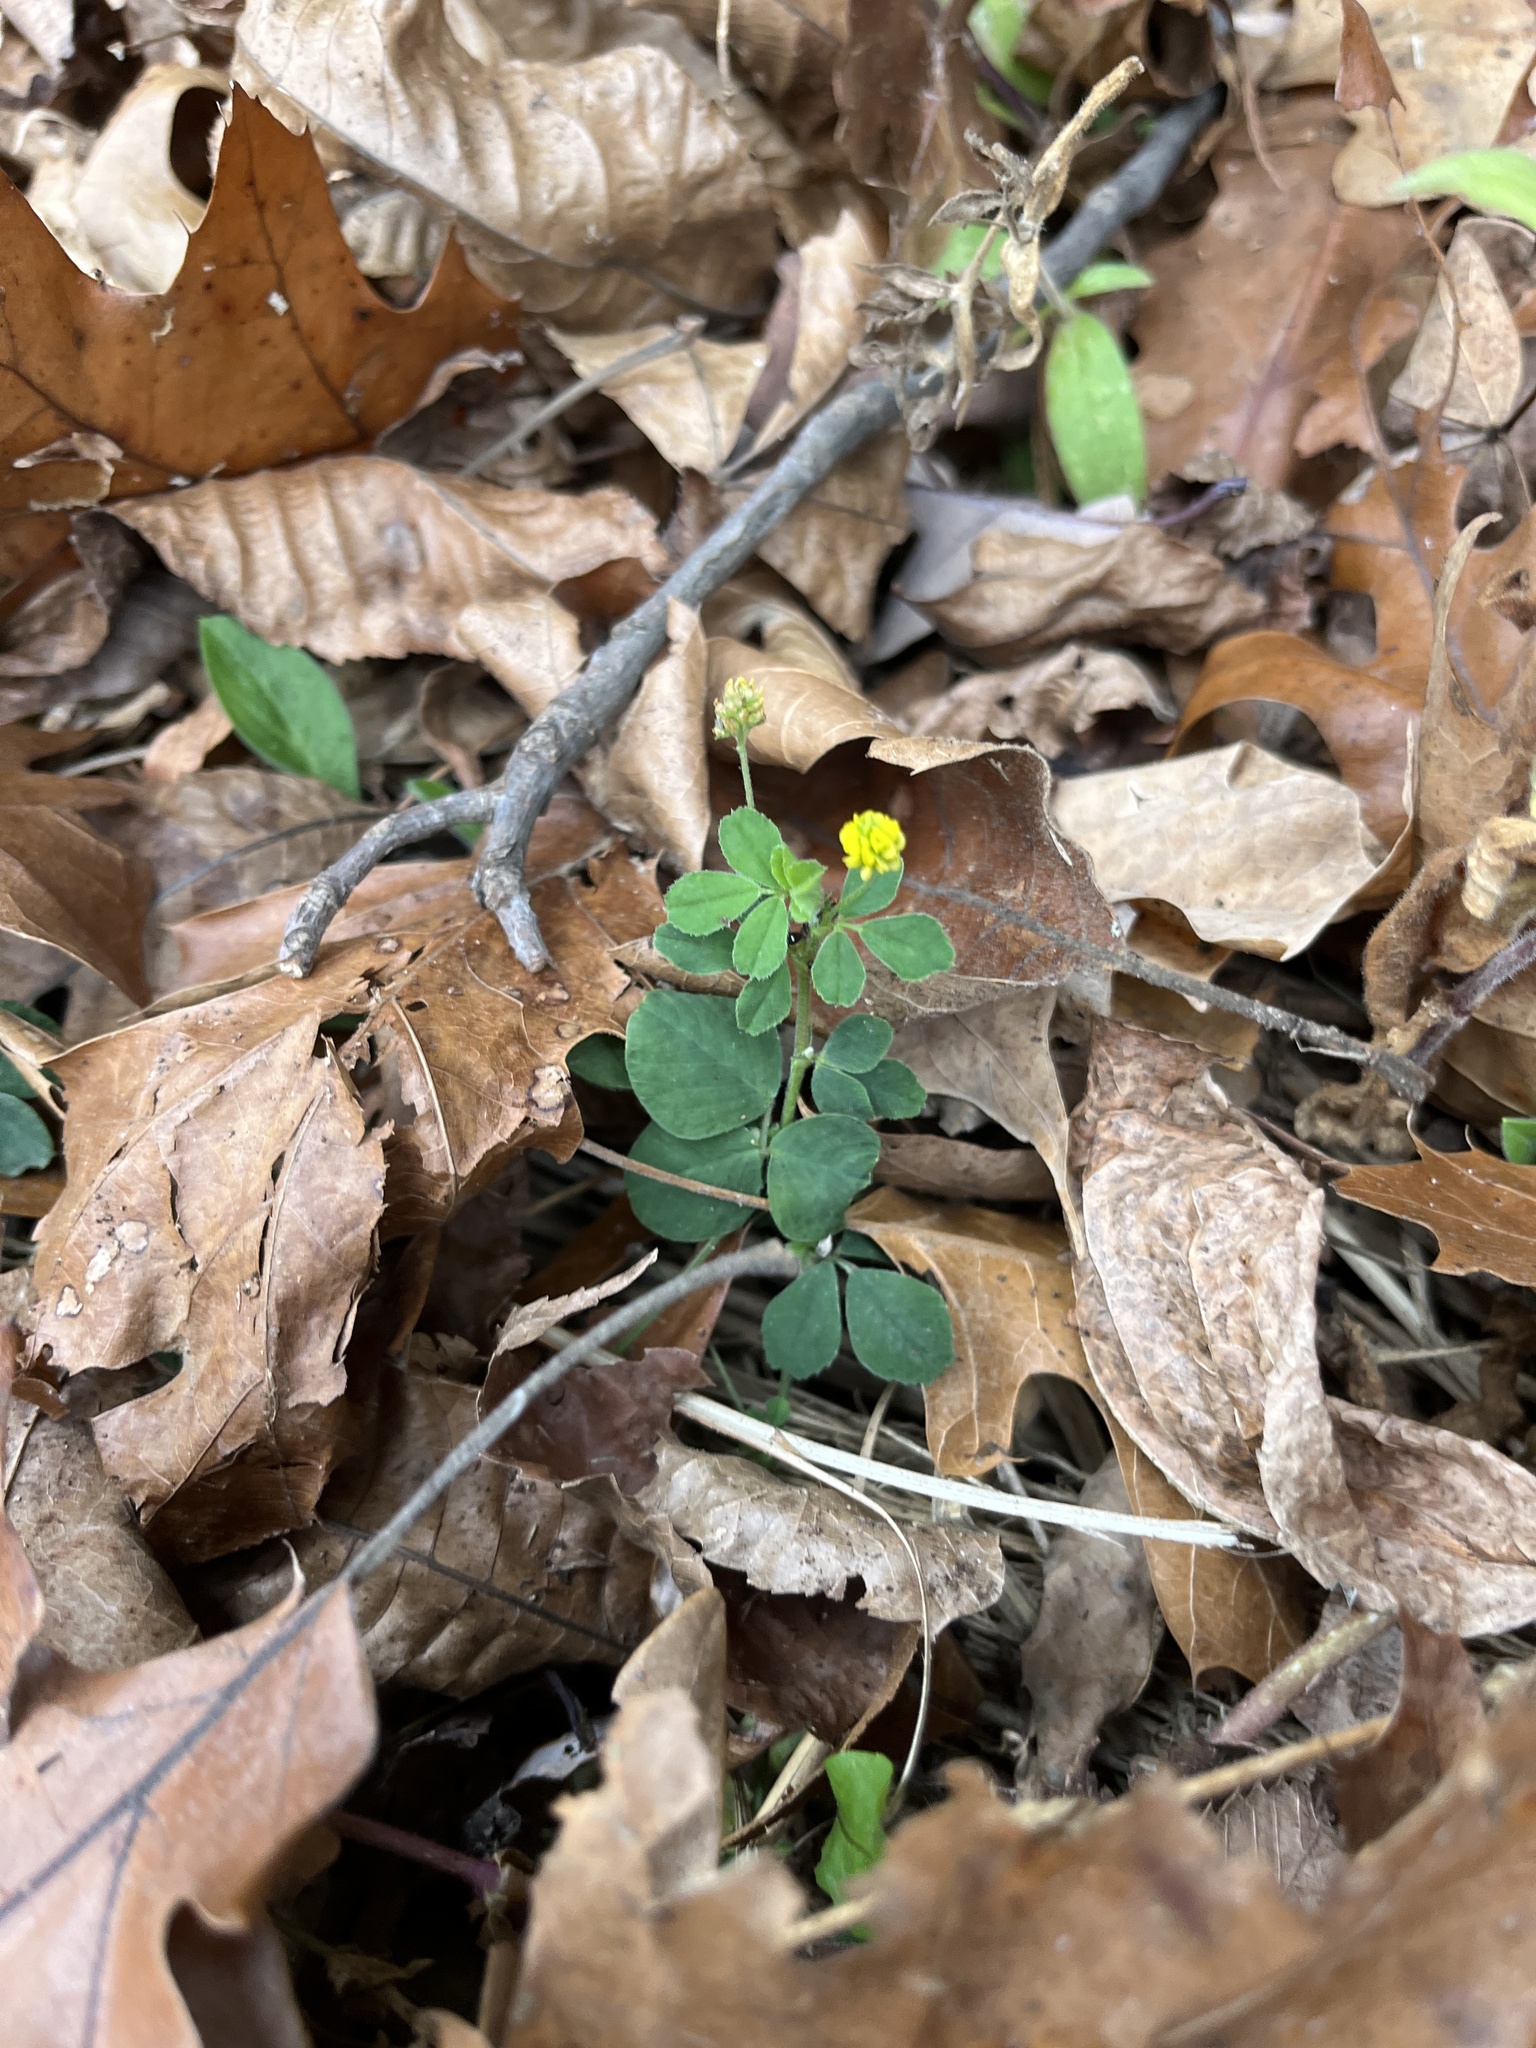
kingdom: Plantae
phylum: Tracheophyta
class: Magnoliopsida
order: Fabales
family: Fabaceae
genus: Medicago
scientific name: Medicago lupulina
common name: Black medick
